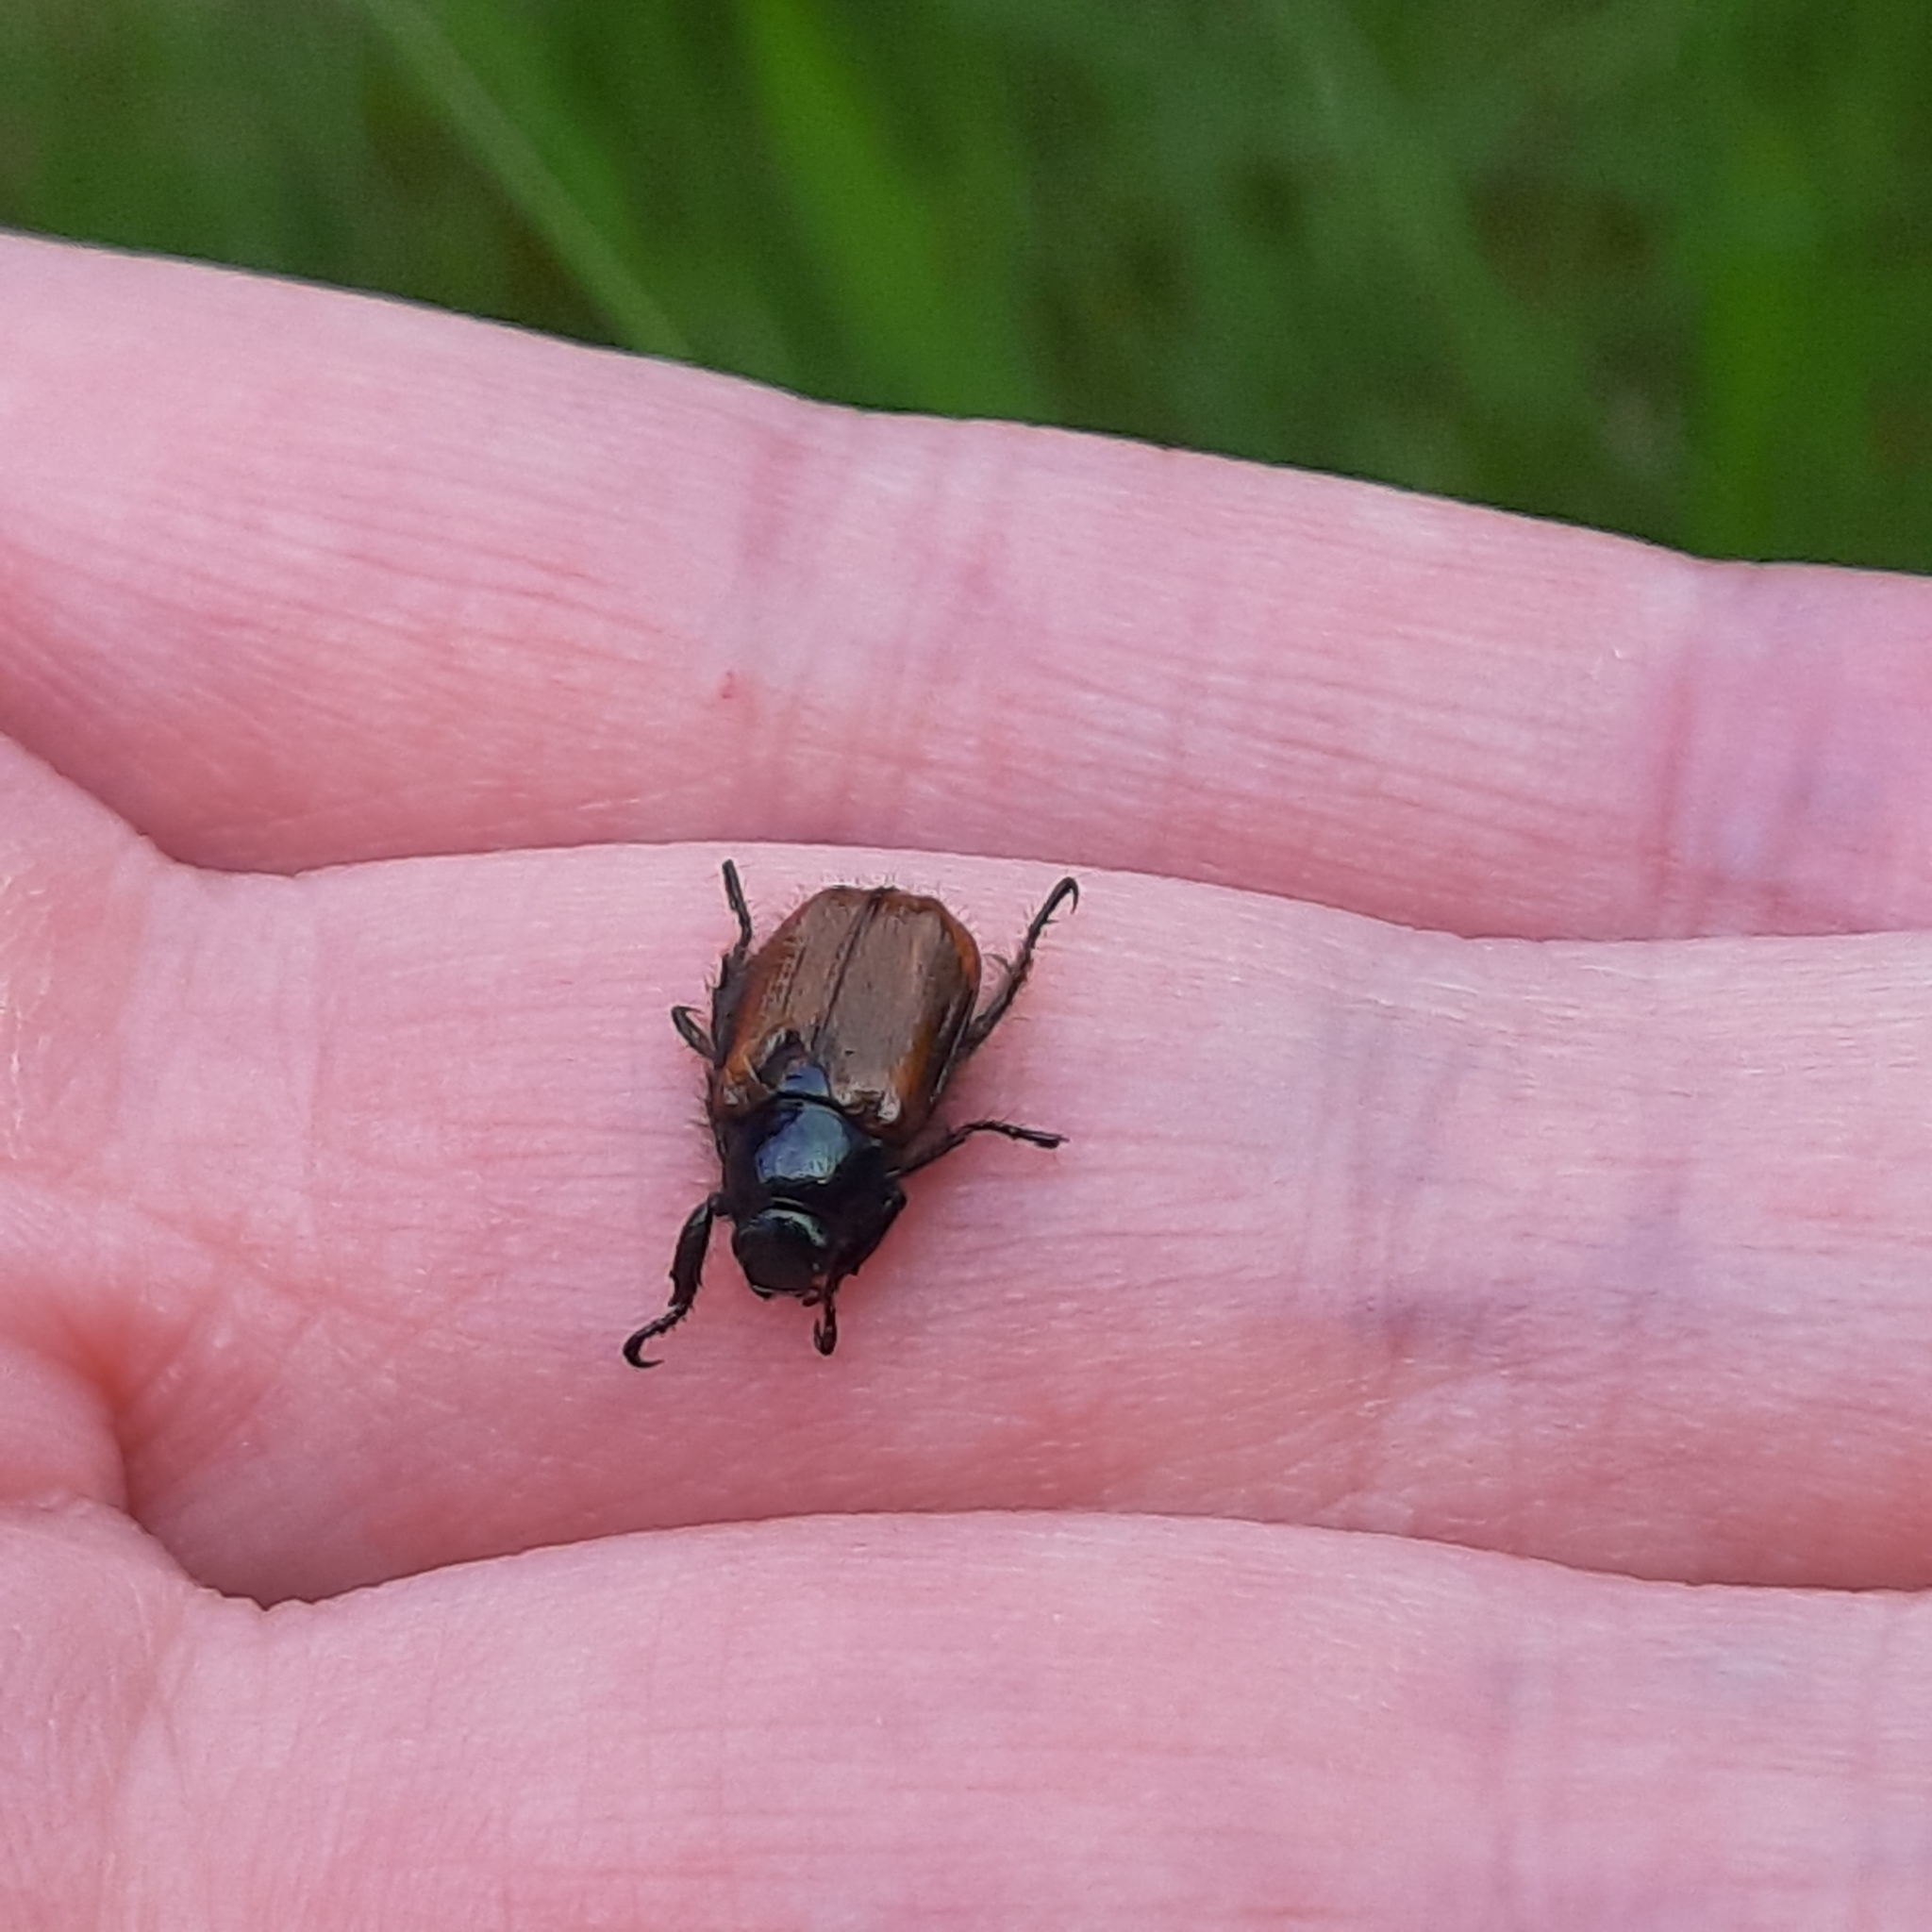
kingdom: Animalia
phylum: Arthropoda
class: Insecta
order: Coleoptera
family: Scarabaeidae
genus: Phyllopertha
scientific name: Phyllopertha horticola
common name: Garden chafer
